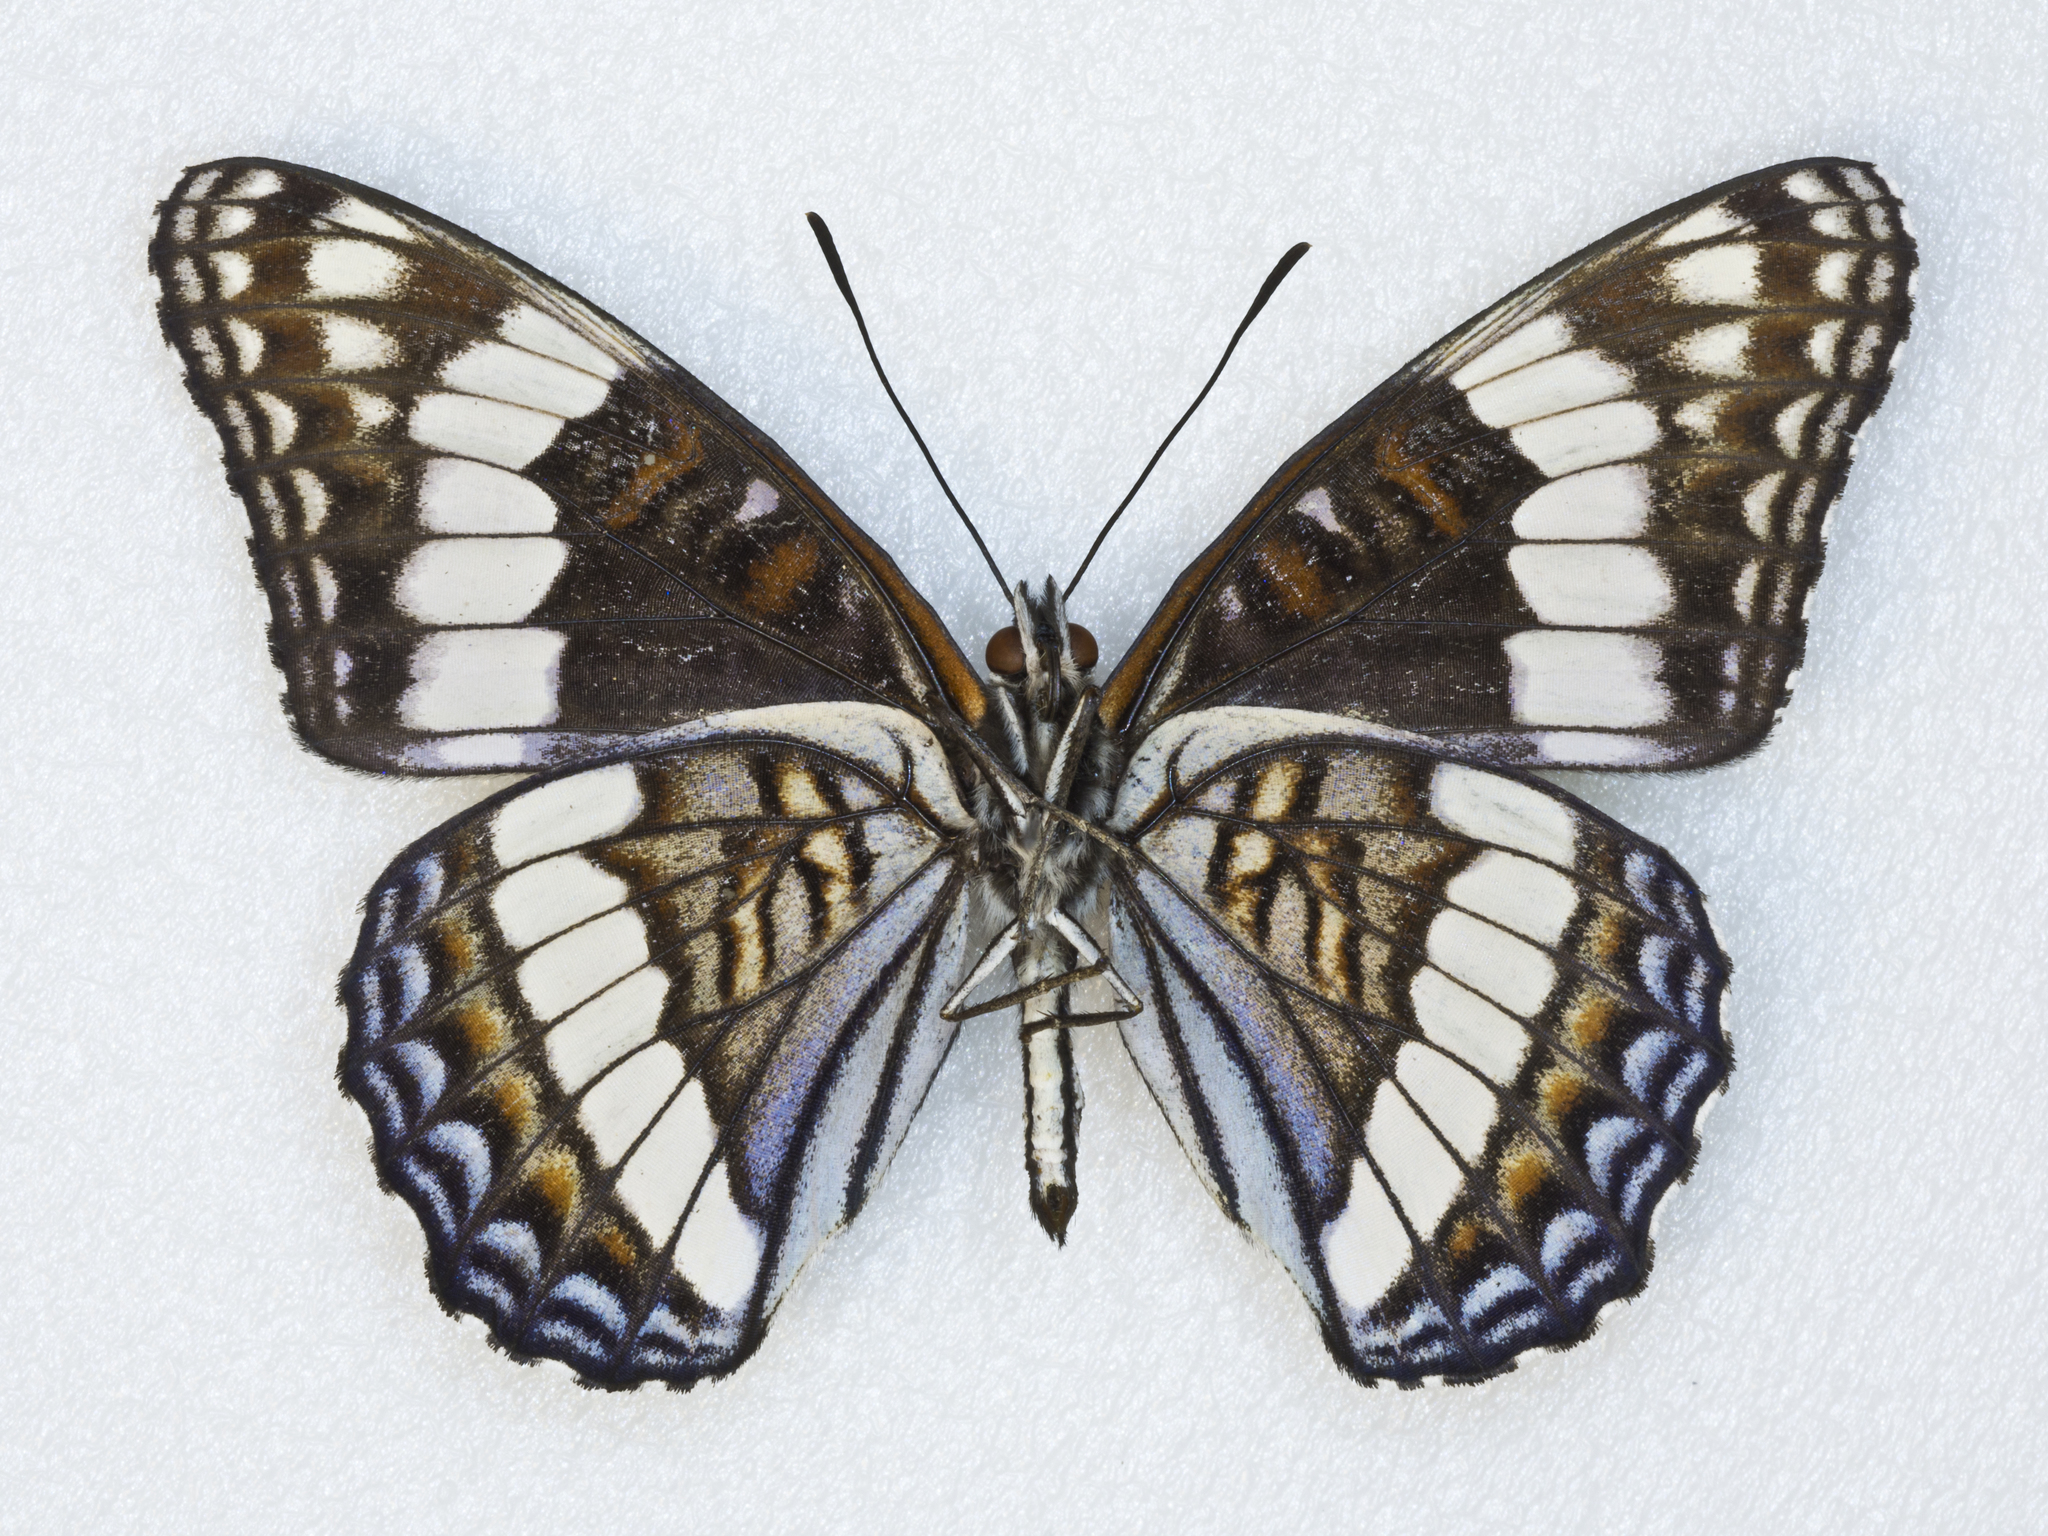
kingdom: Animalia
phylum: Arthropoda
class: Insecta
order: Lepidoptera
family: Nymphalidae
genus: Limenitis
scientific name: Limenitis weidemeyerii
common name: Weidemeyer's admiral
